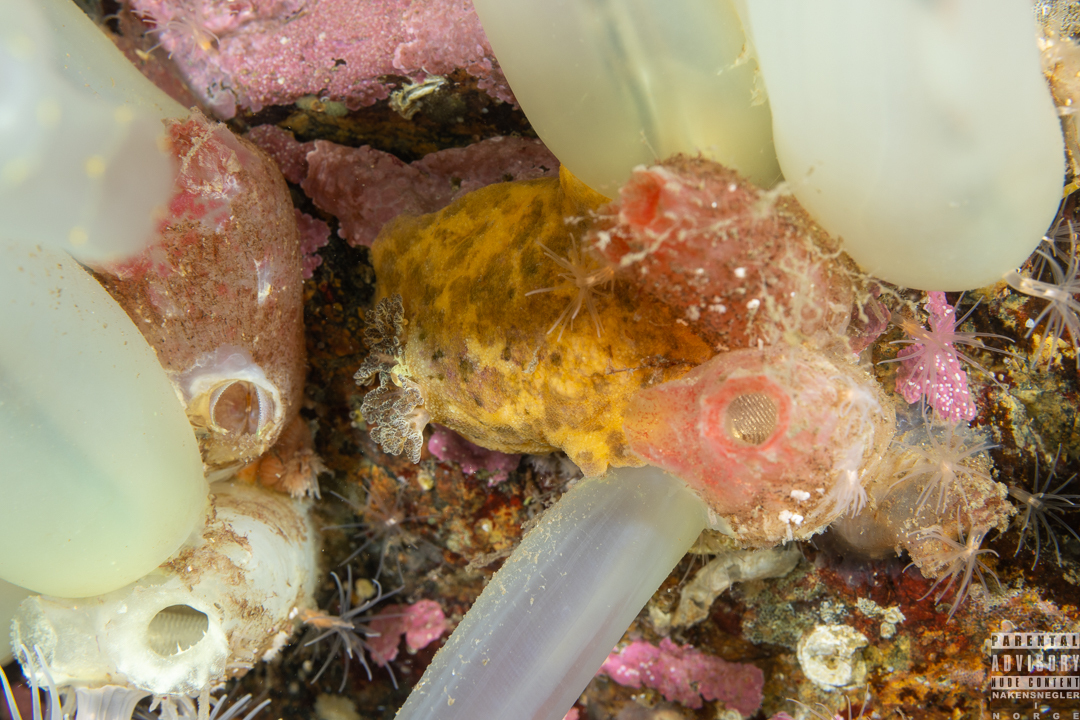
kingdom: Animalia
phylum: Mollusca
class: Gastropoda
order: Nudibranchia
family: Dorididae
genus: Doris
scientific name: Doris pseudoargus
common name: Sea lemon
